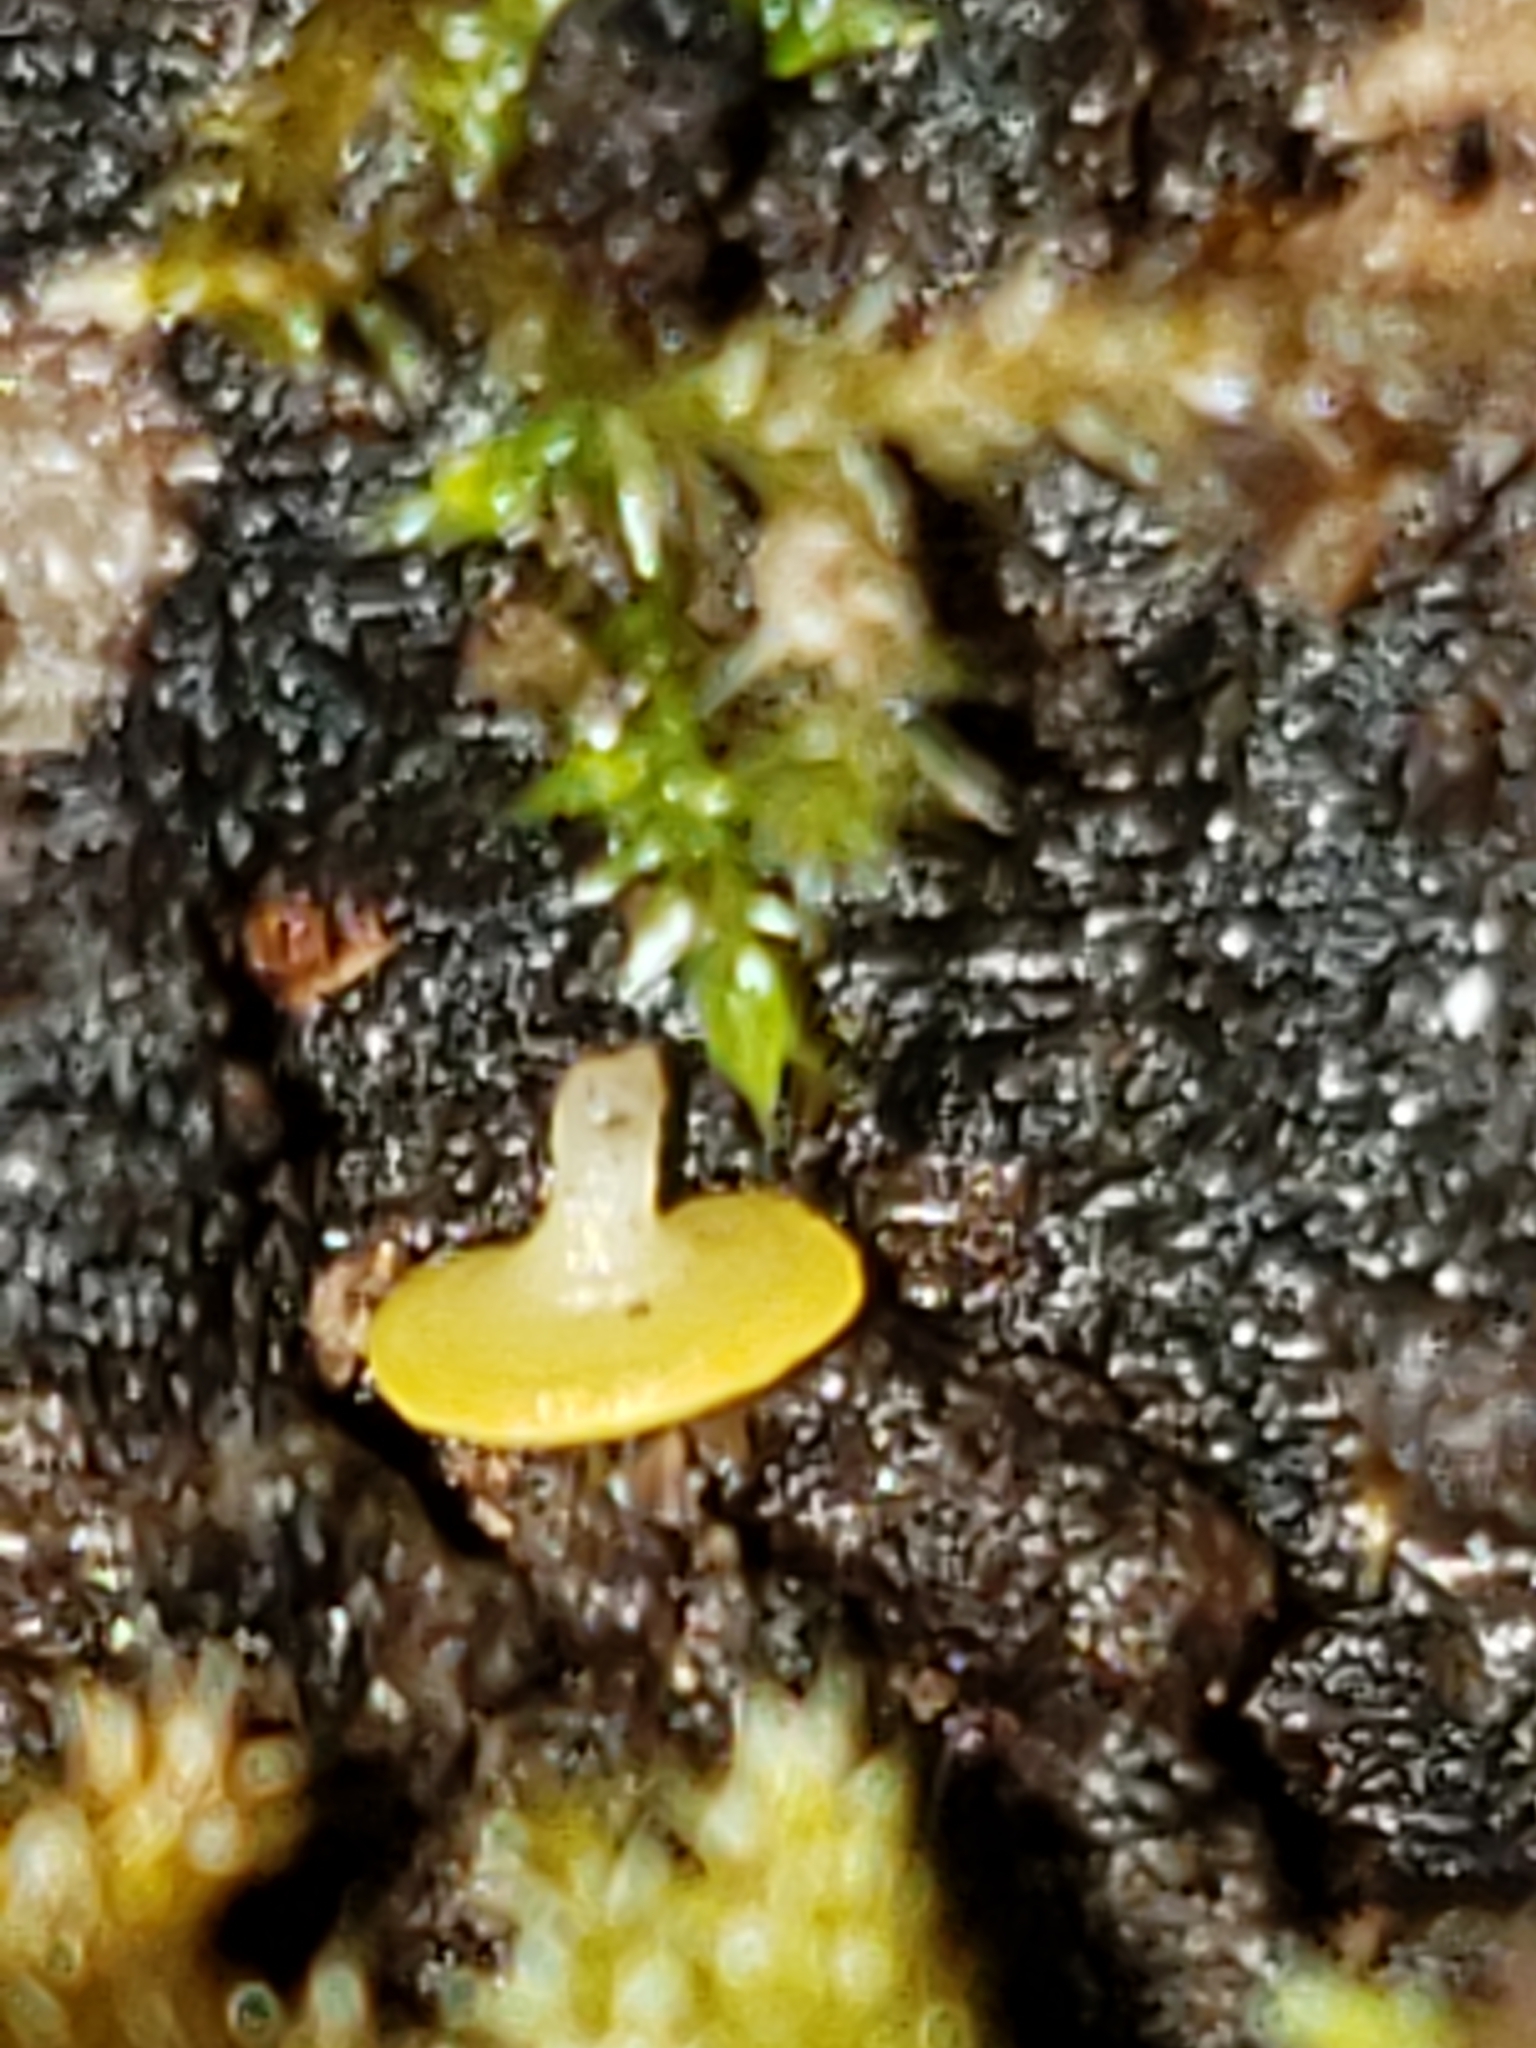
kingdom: Fungi
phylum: Ascomycota
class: Leotiomycetes
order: Helotiales
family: Pezizellaceae
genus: Calycina
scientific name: Calycina citrina
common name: Yellow fairy cups
